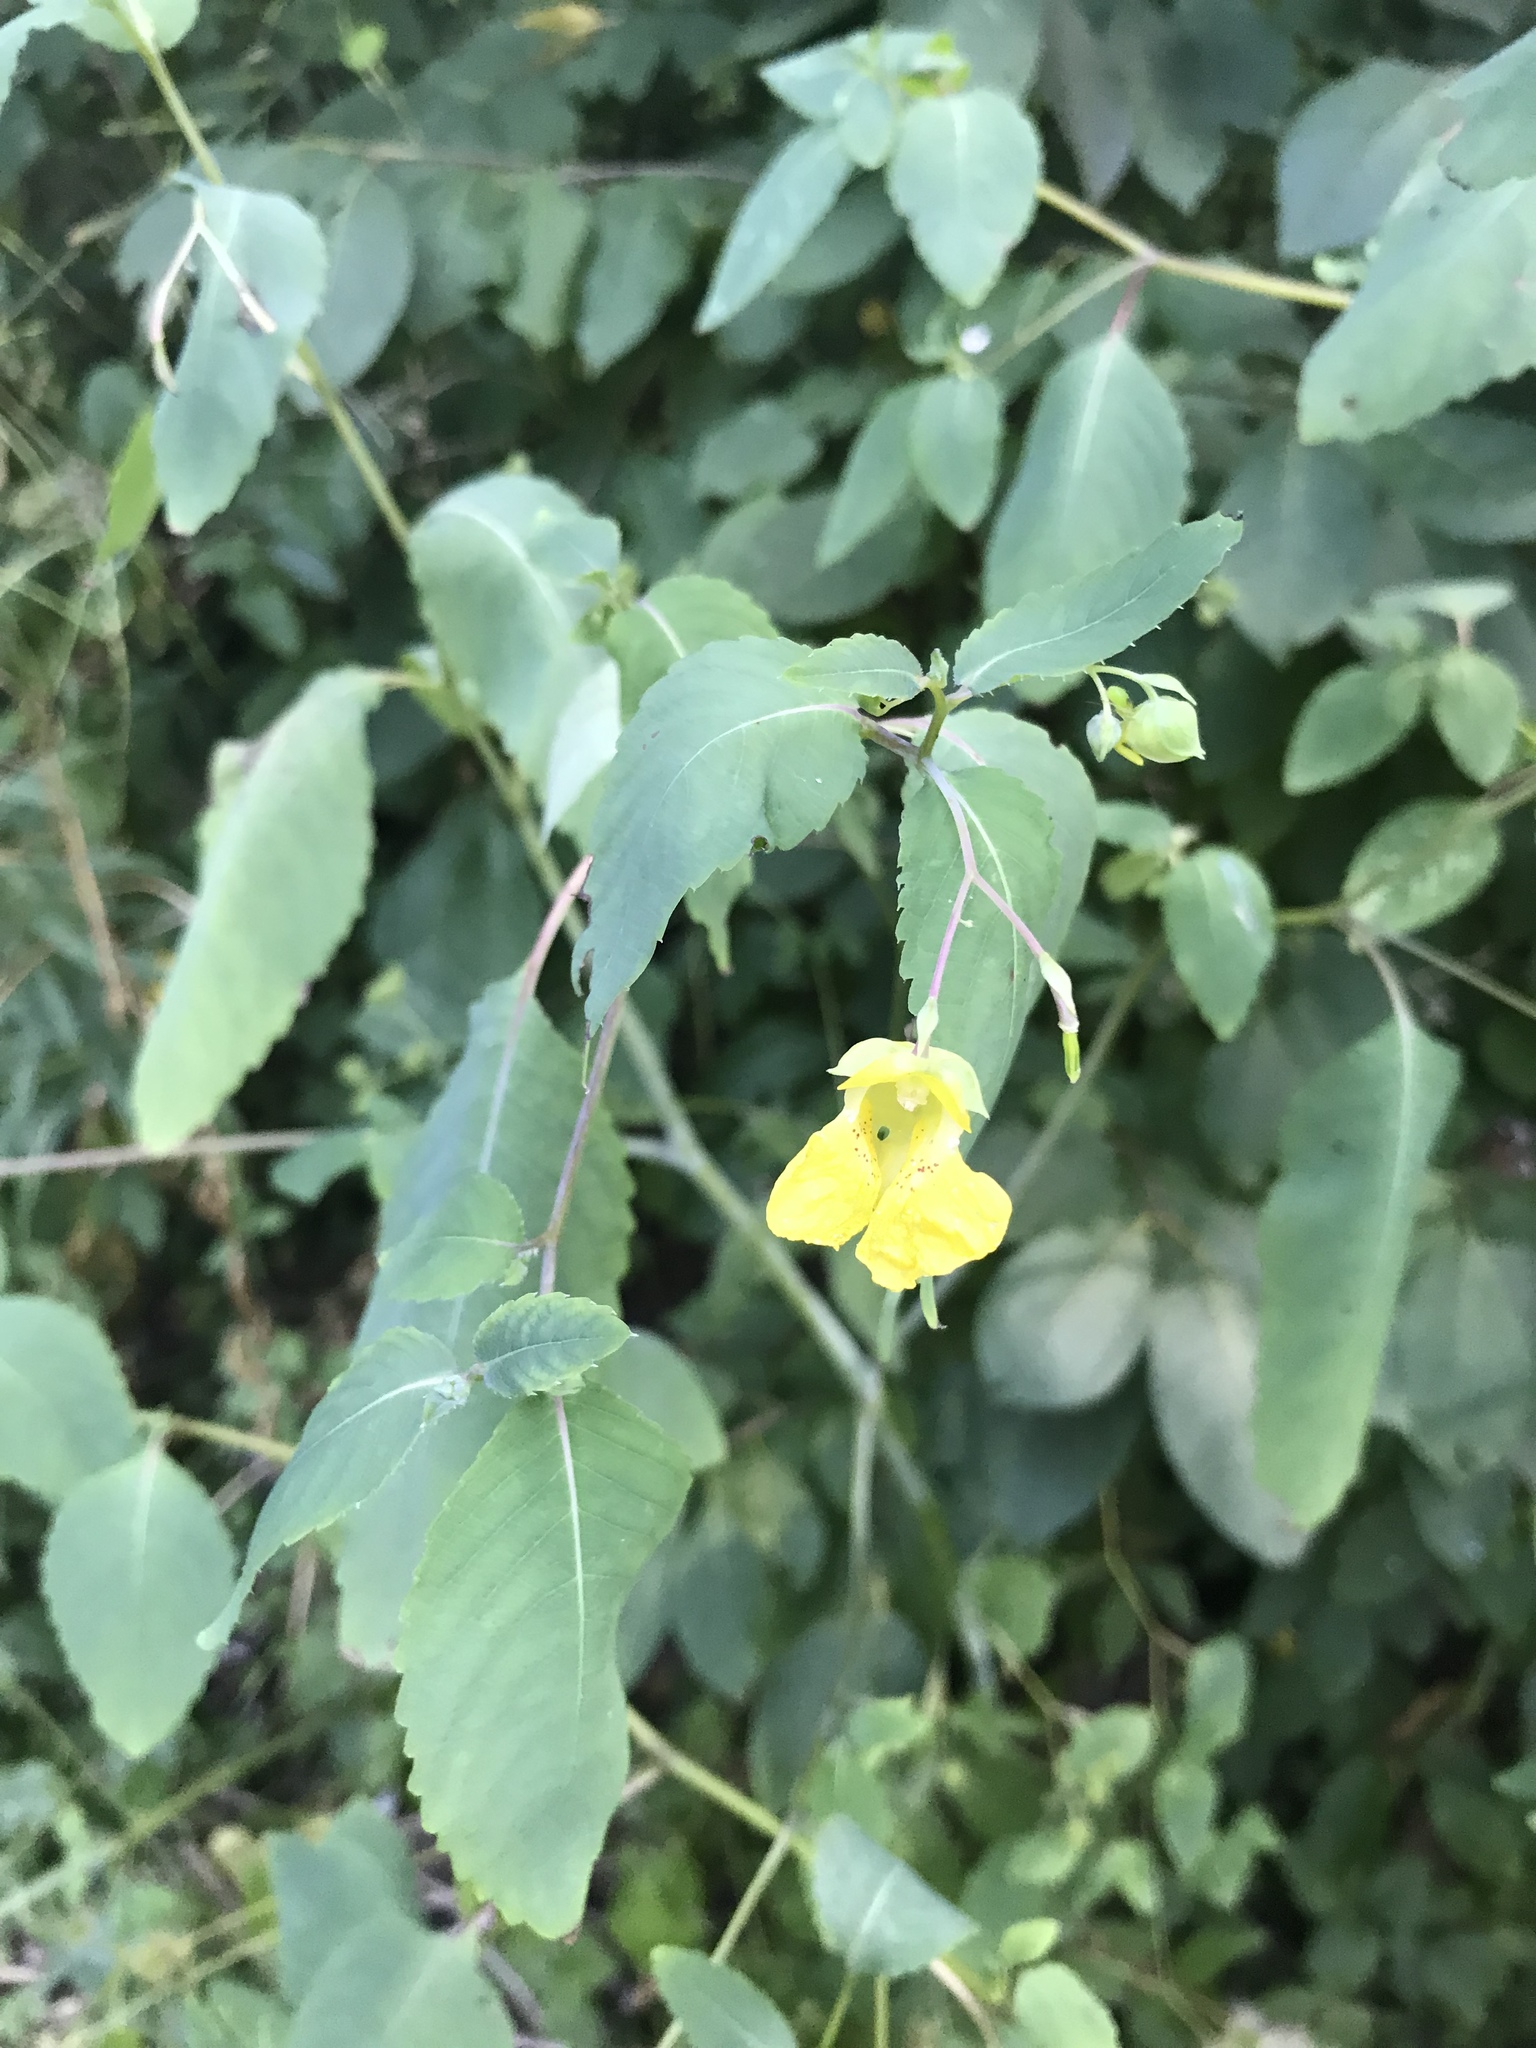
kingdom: Plantae
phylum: Tracheophyta
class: Magnoliopsida
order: Ericales
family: Balsaminaceae
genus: Impatiens
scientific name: Impatiens pallida
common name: Pale snapweed
